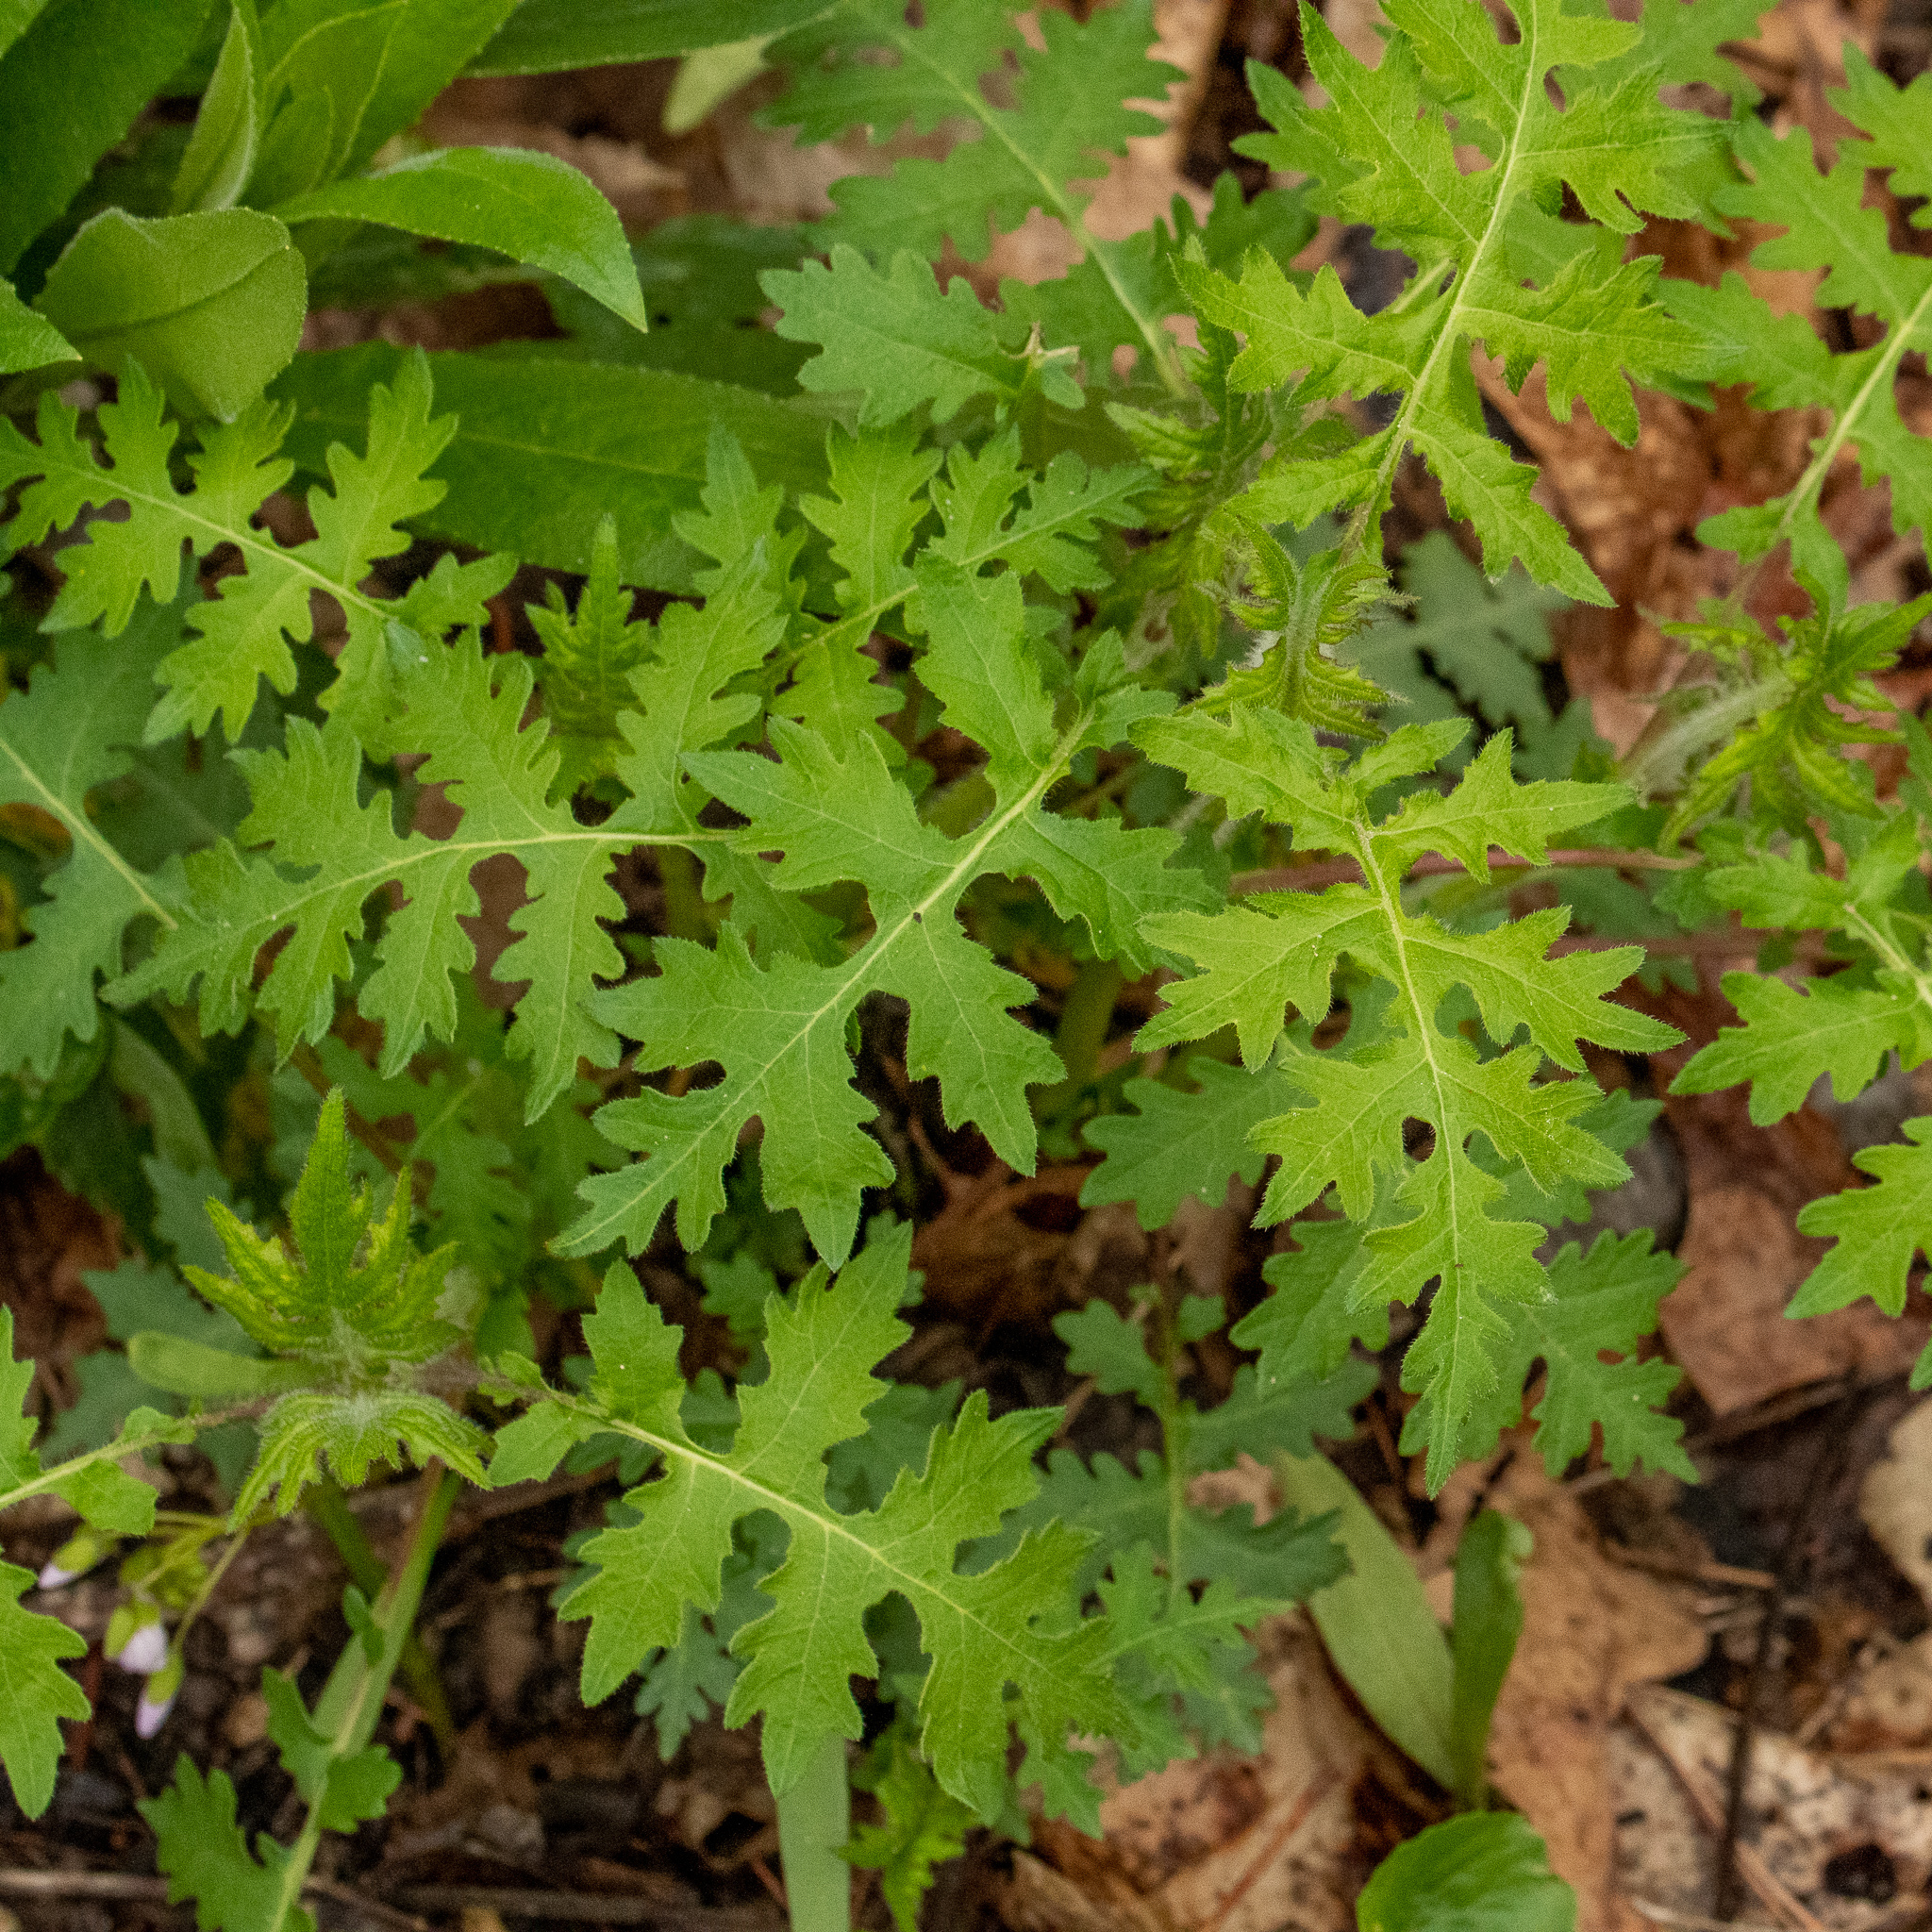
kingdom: Plantae
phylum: Tracheophyta
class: Magnoliopsida
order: Asterales
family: Asteraceae
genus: Polymnia
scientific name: Polymnia canadensis
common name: Pale-flowered leafcup
